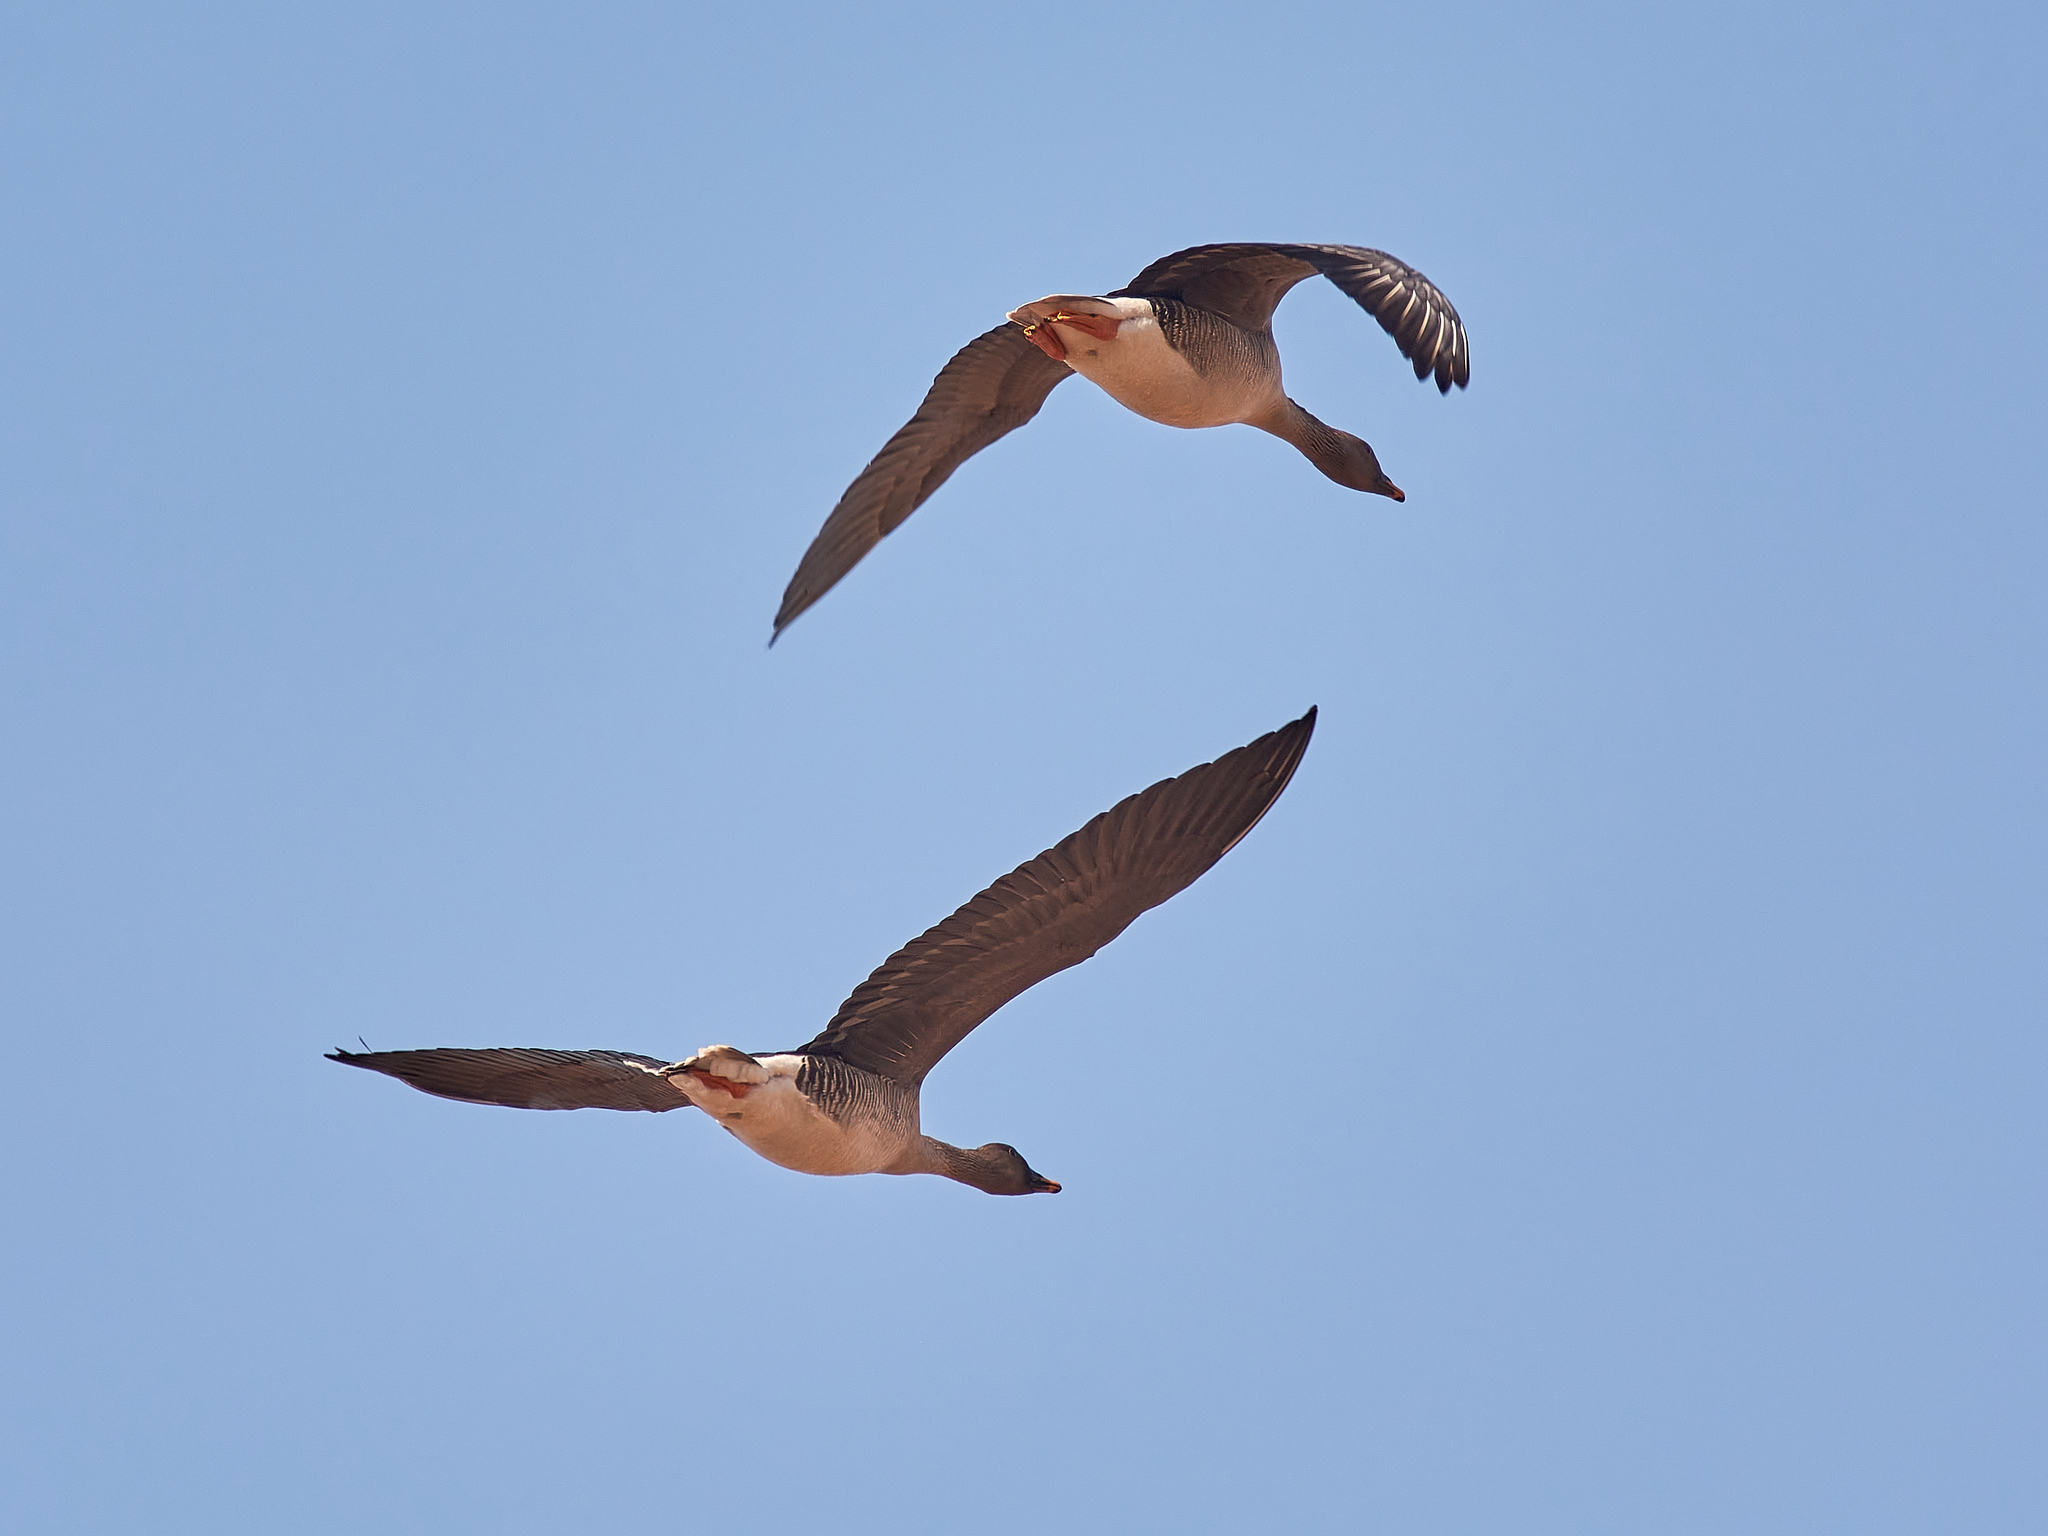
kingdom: Animalia
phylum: Chordata
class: Aves
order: Anseriformes
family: Anatidae
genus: Anser
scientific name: Anser serrirostris
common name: Tundra bean goose
